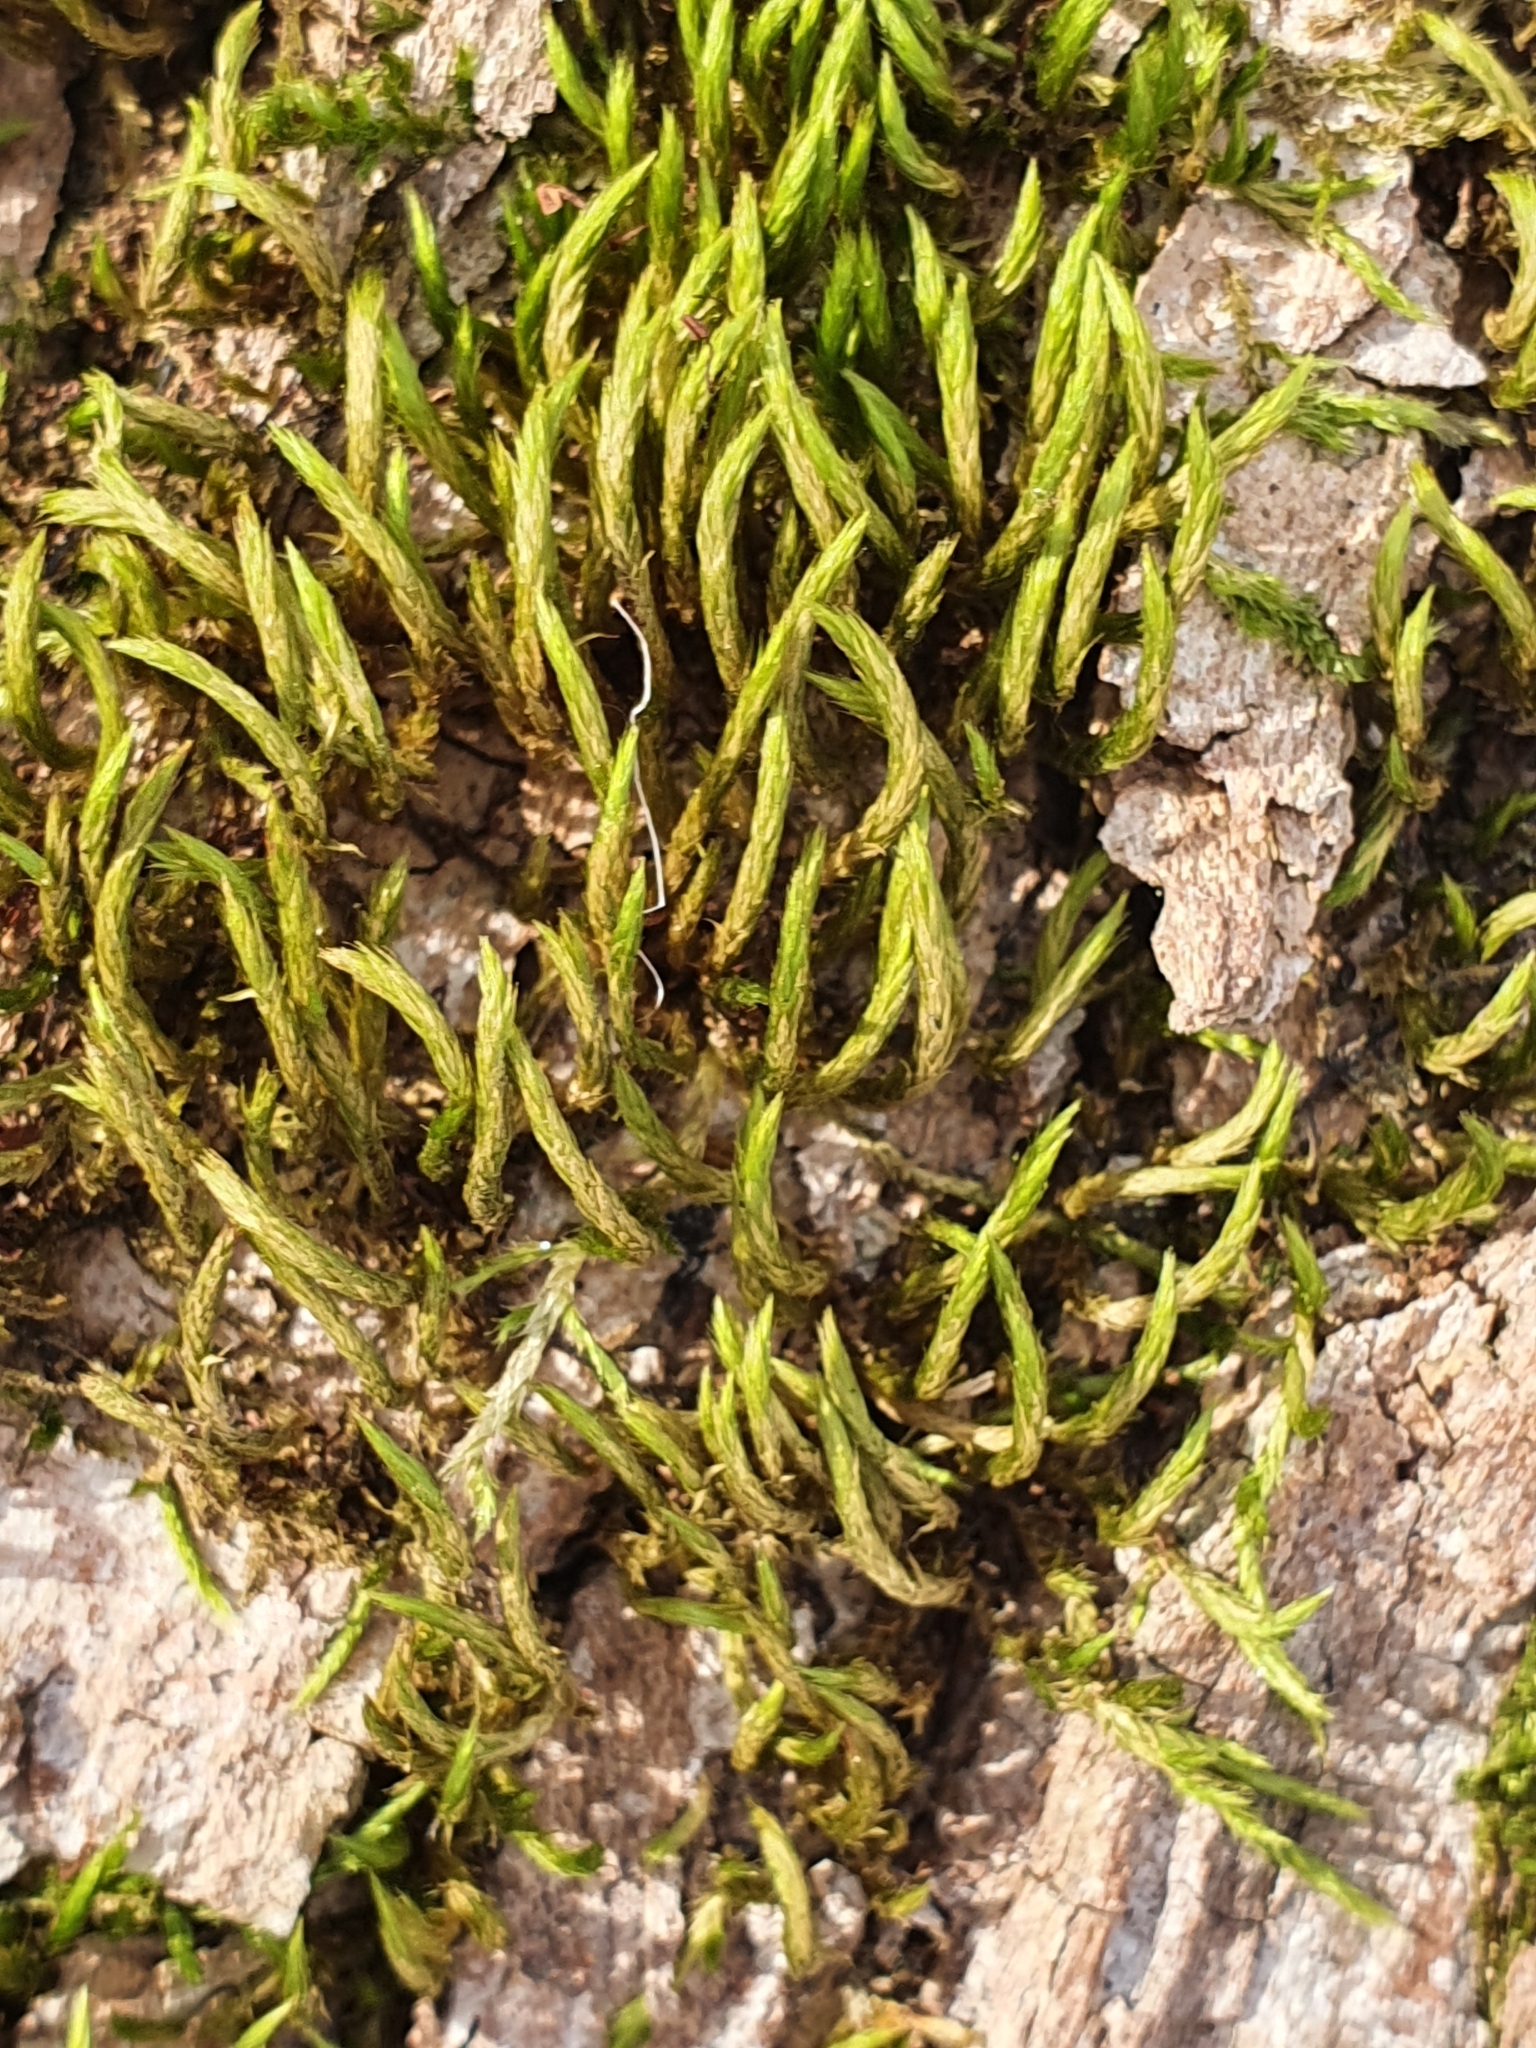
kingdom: Plantae
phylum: Bryophyta
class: Bryopsida
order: Hypnales
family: Leucodontaceae
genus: Leucodon
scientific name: Leucodon sciuroides
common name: Squirrel-tail moss
